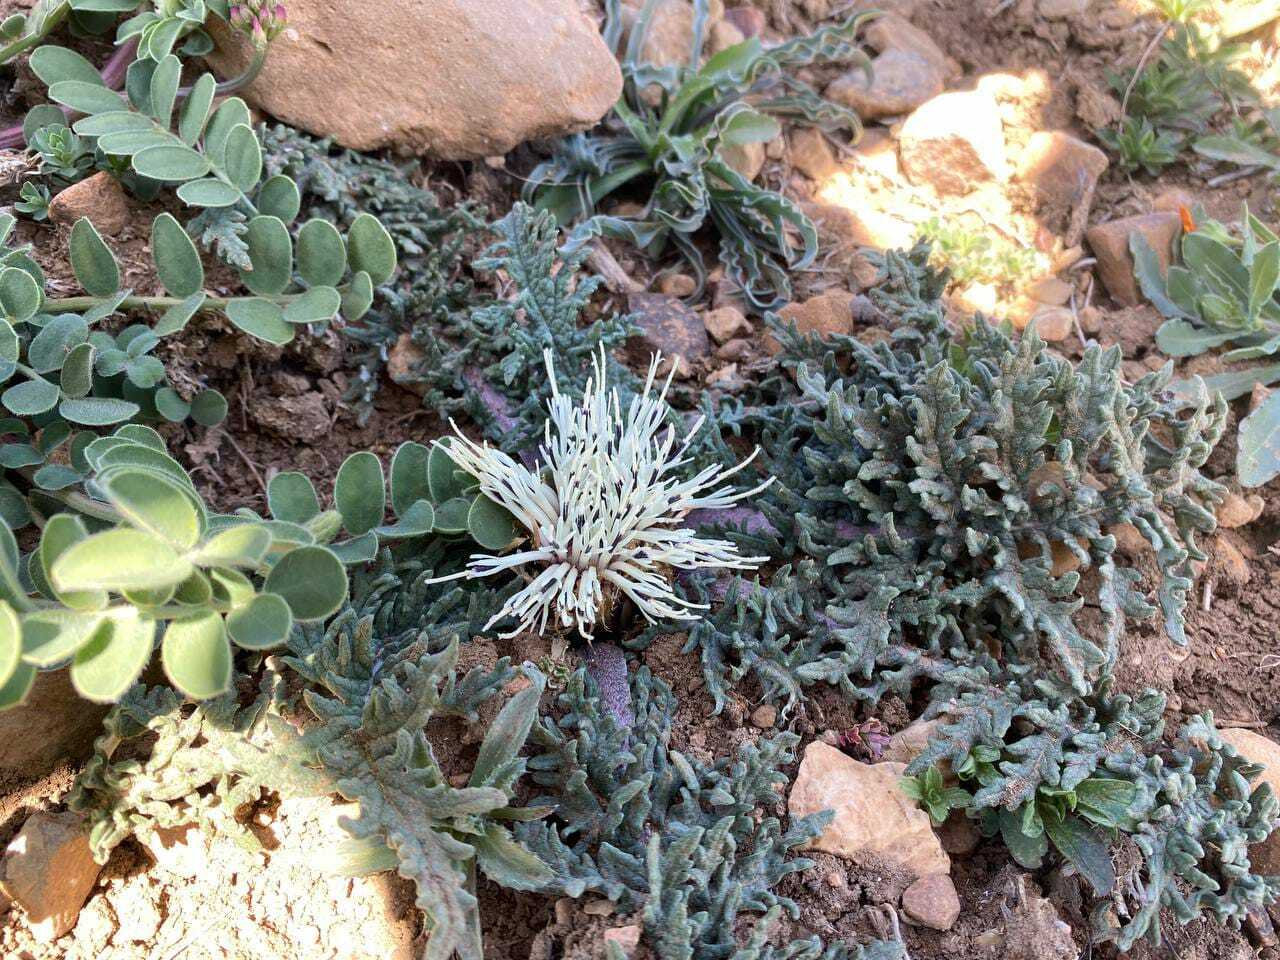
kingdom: Plantae
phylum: Tracheophyta
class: Magnoliopsida
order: Asterales
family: Asteraceae
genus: Leuzea
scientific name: Leuzea acaulis
